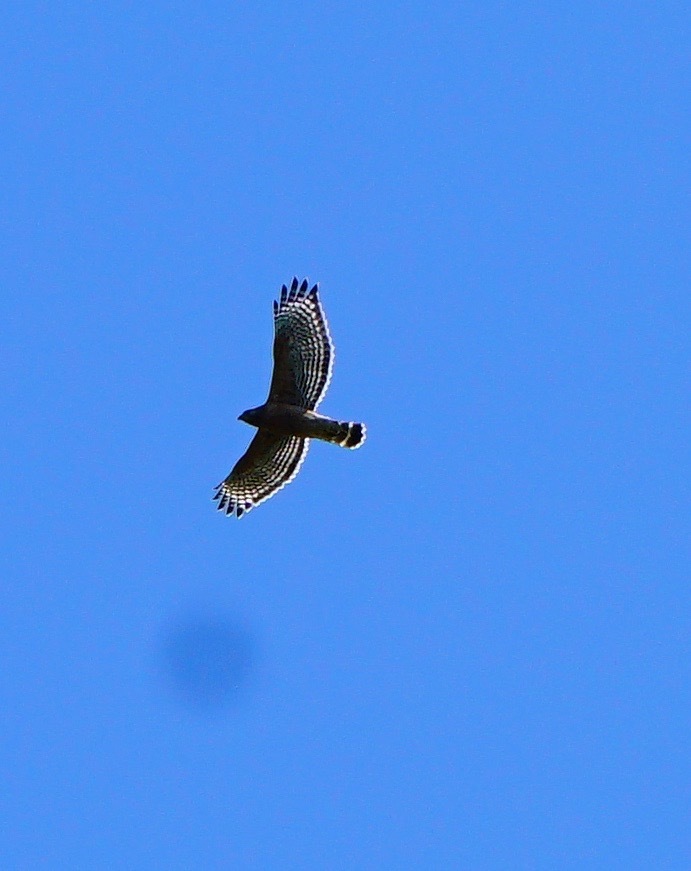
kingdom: Animalia
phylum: Chordata
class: Aves
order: Accipitriformes
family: Accipitridae
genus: Buteo
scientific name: Buteo lineatus
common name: Red-shouldered hawk
